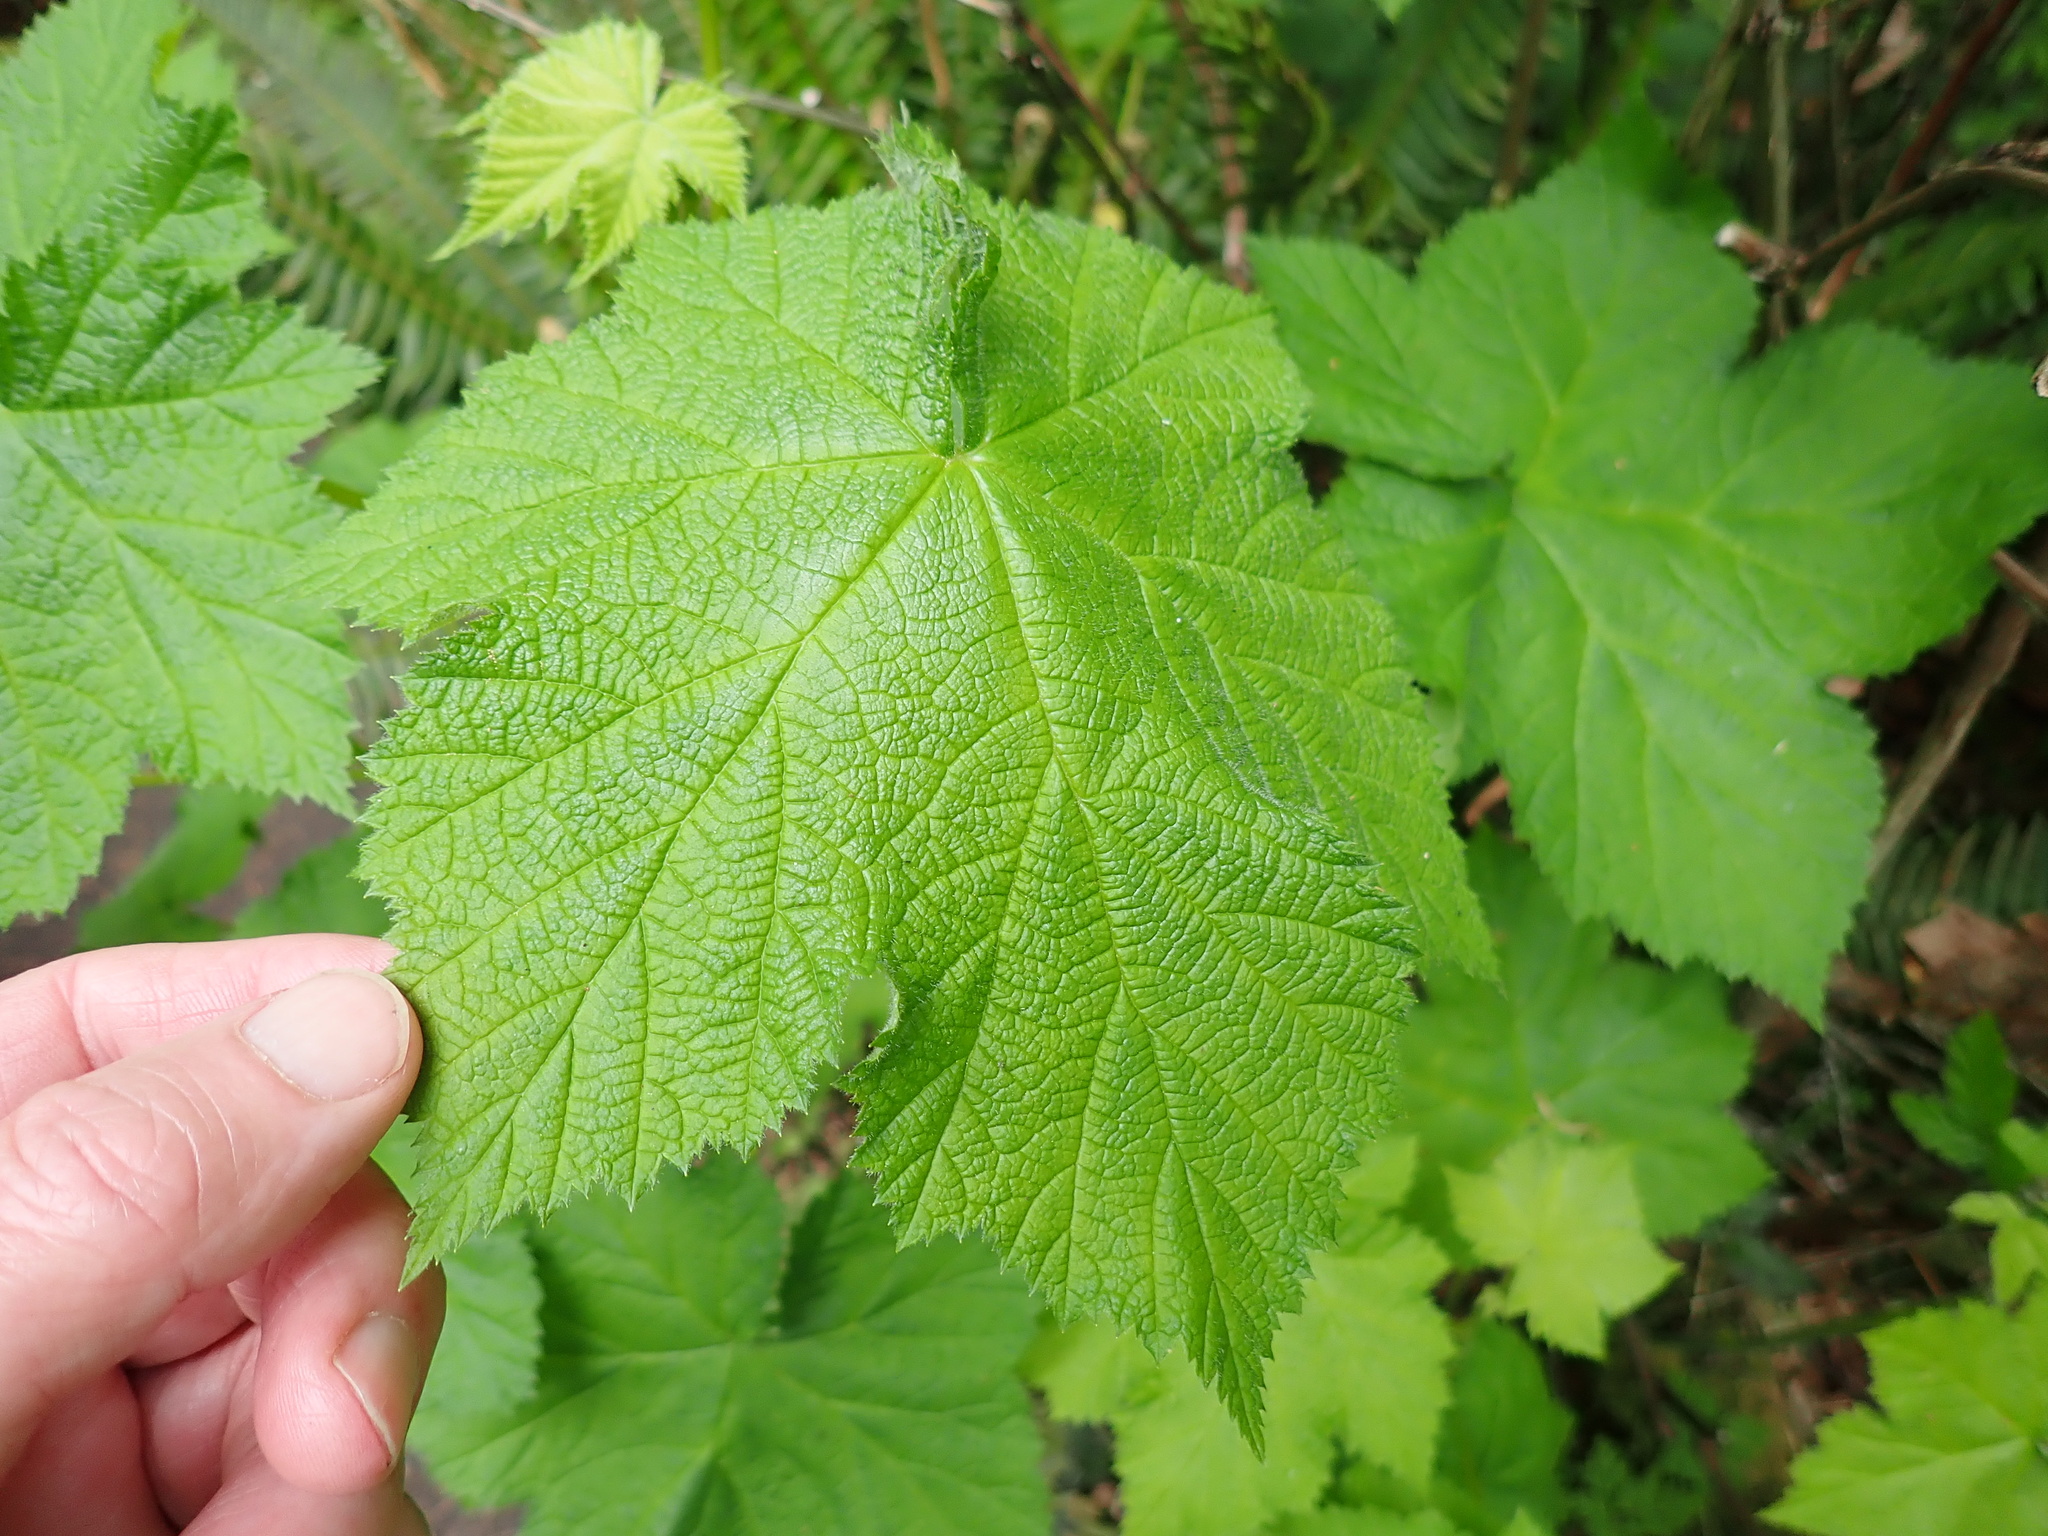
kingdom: Plantae
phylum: Tracheophyta
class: Magnoliopsida
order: Rosales
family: Rosaceae
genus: Rubus
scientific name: Rubus parviflorus
